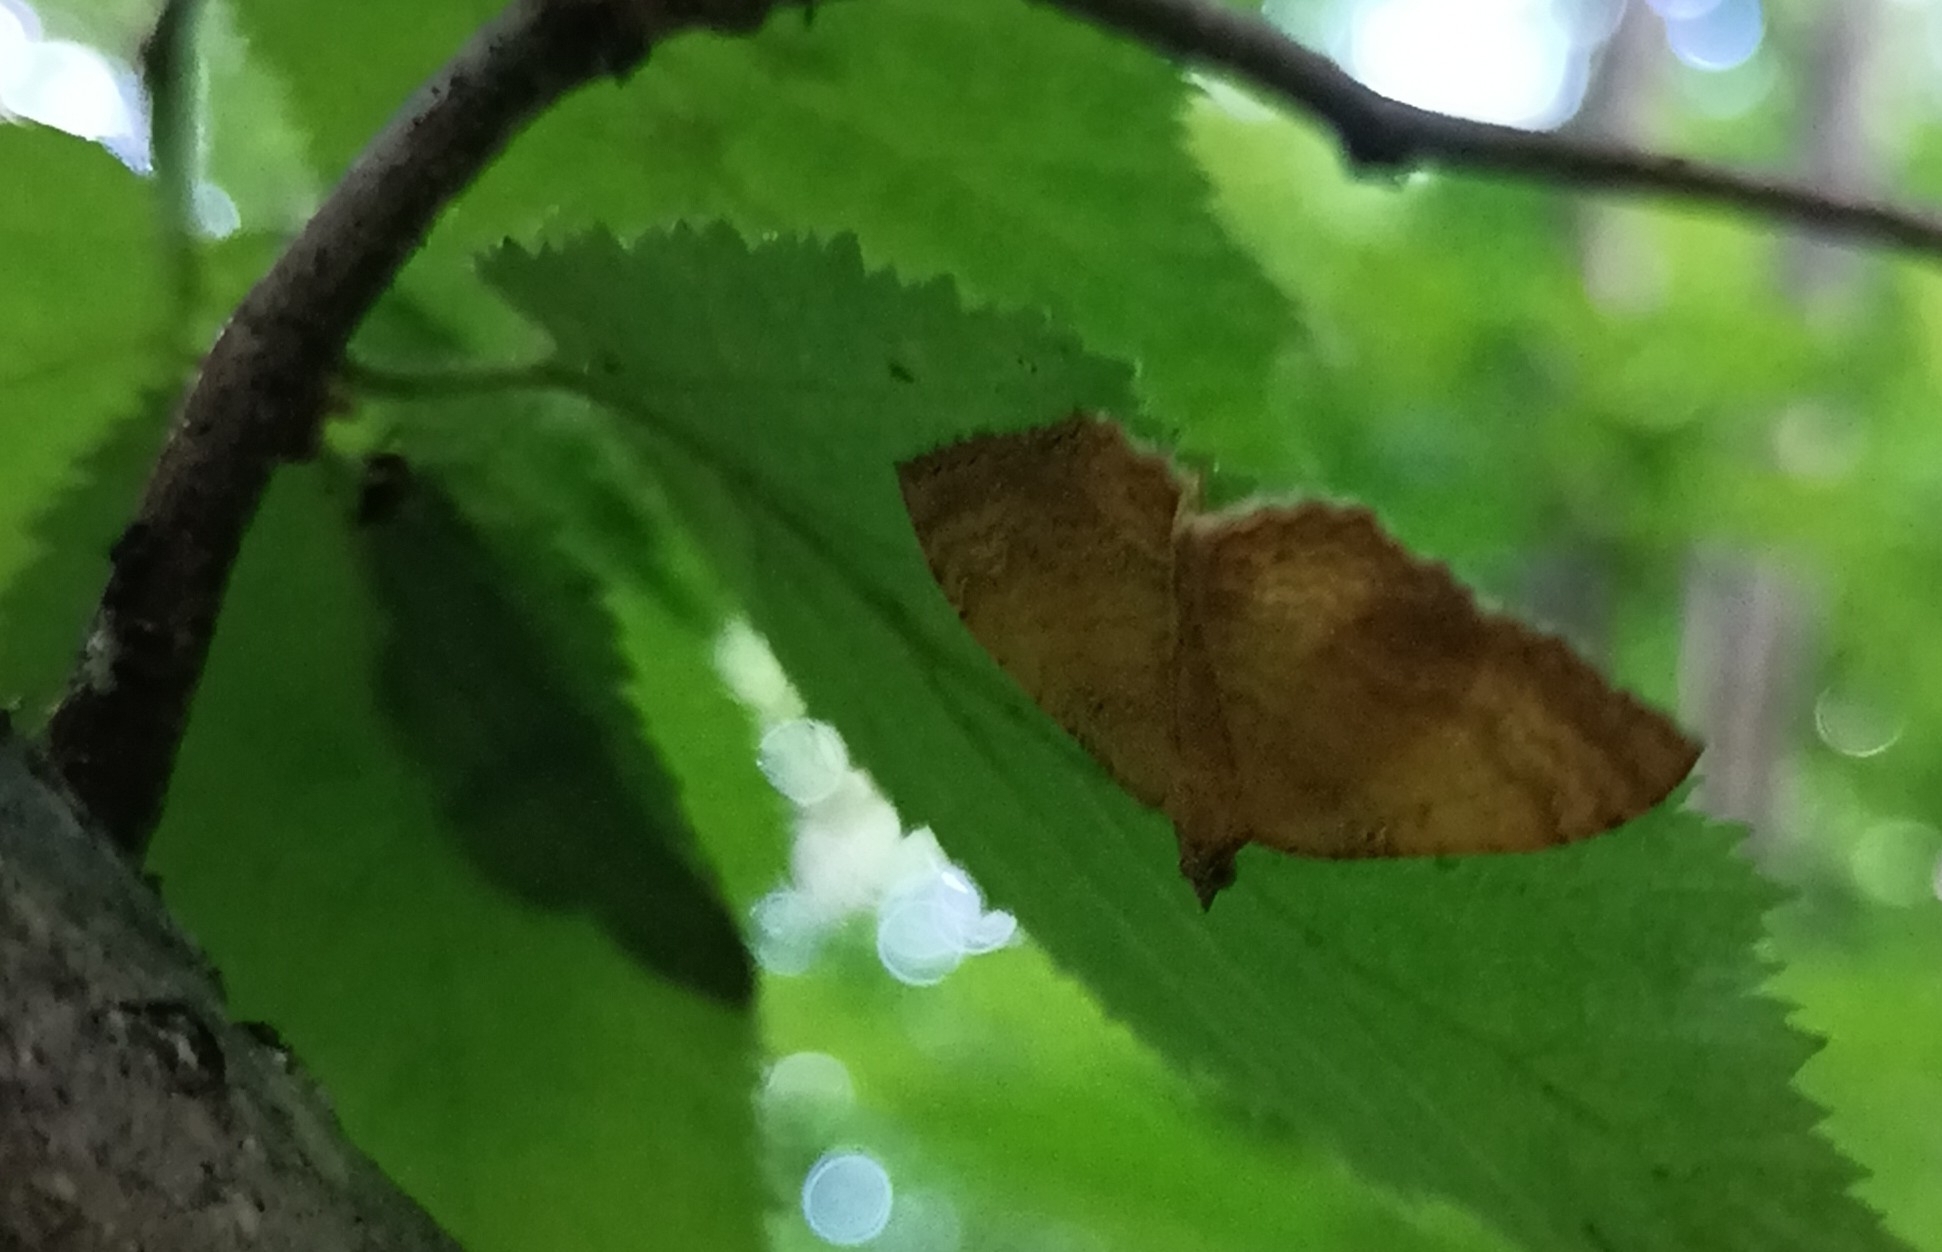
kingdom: Animalia
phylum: Arthropoda
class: Insecta
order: Lepidoptera
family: Geometridae
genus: Camptogramma
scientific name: Camptogramma bilineata
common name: Yellow shell
